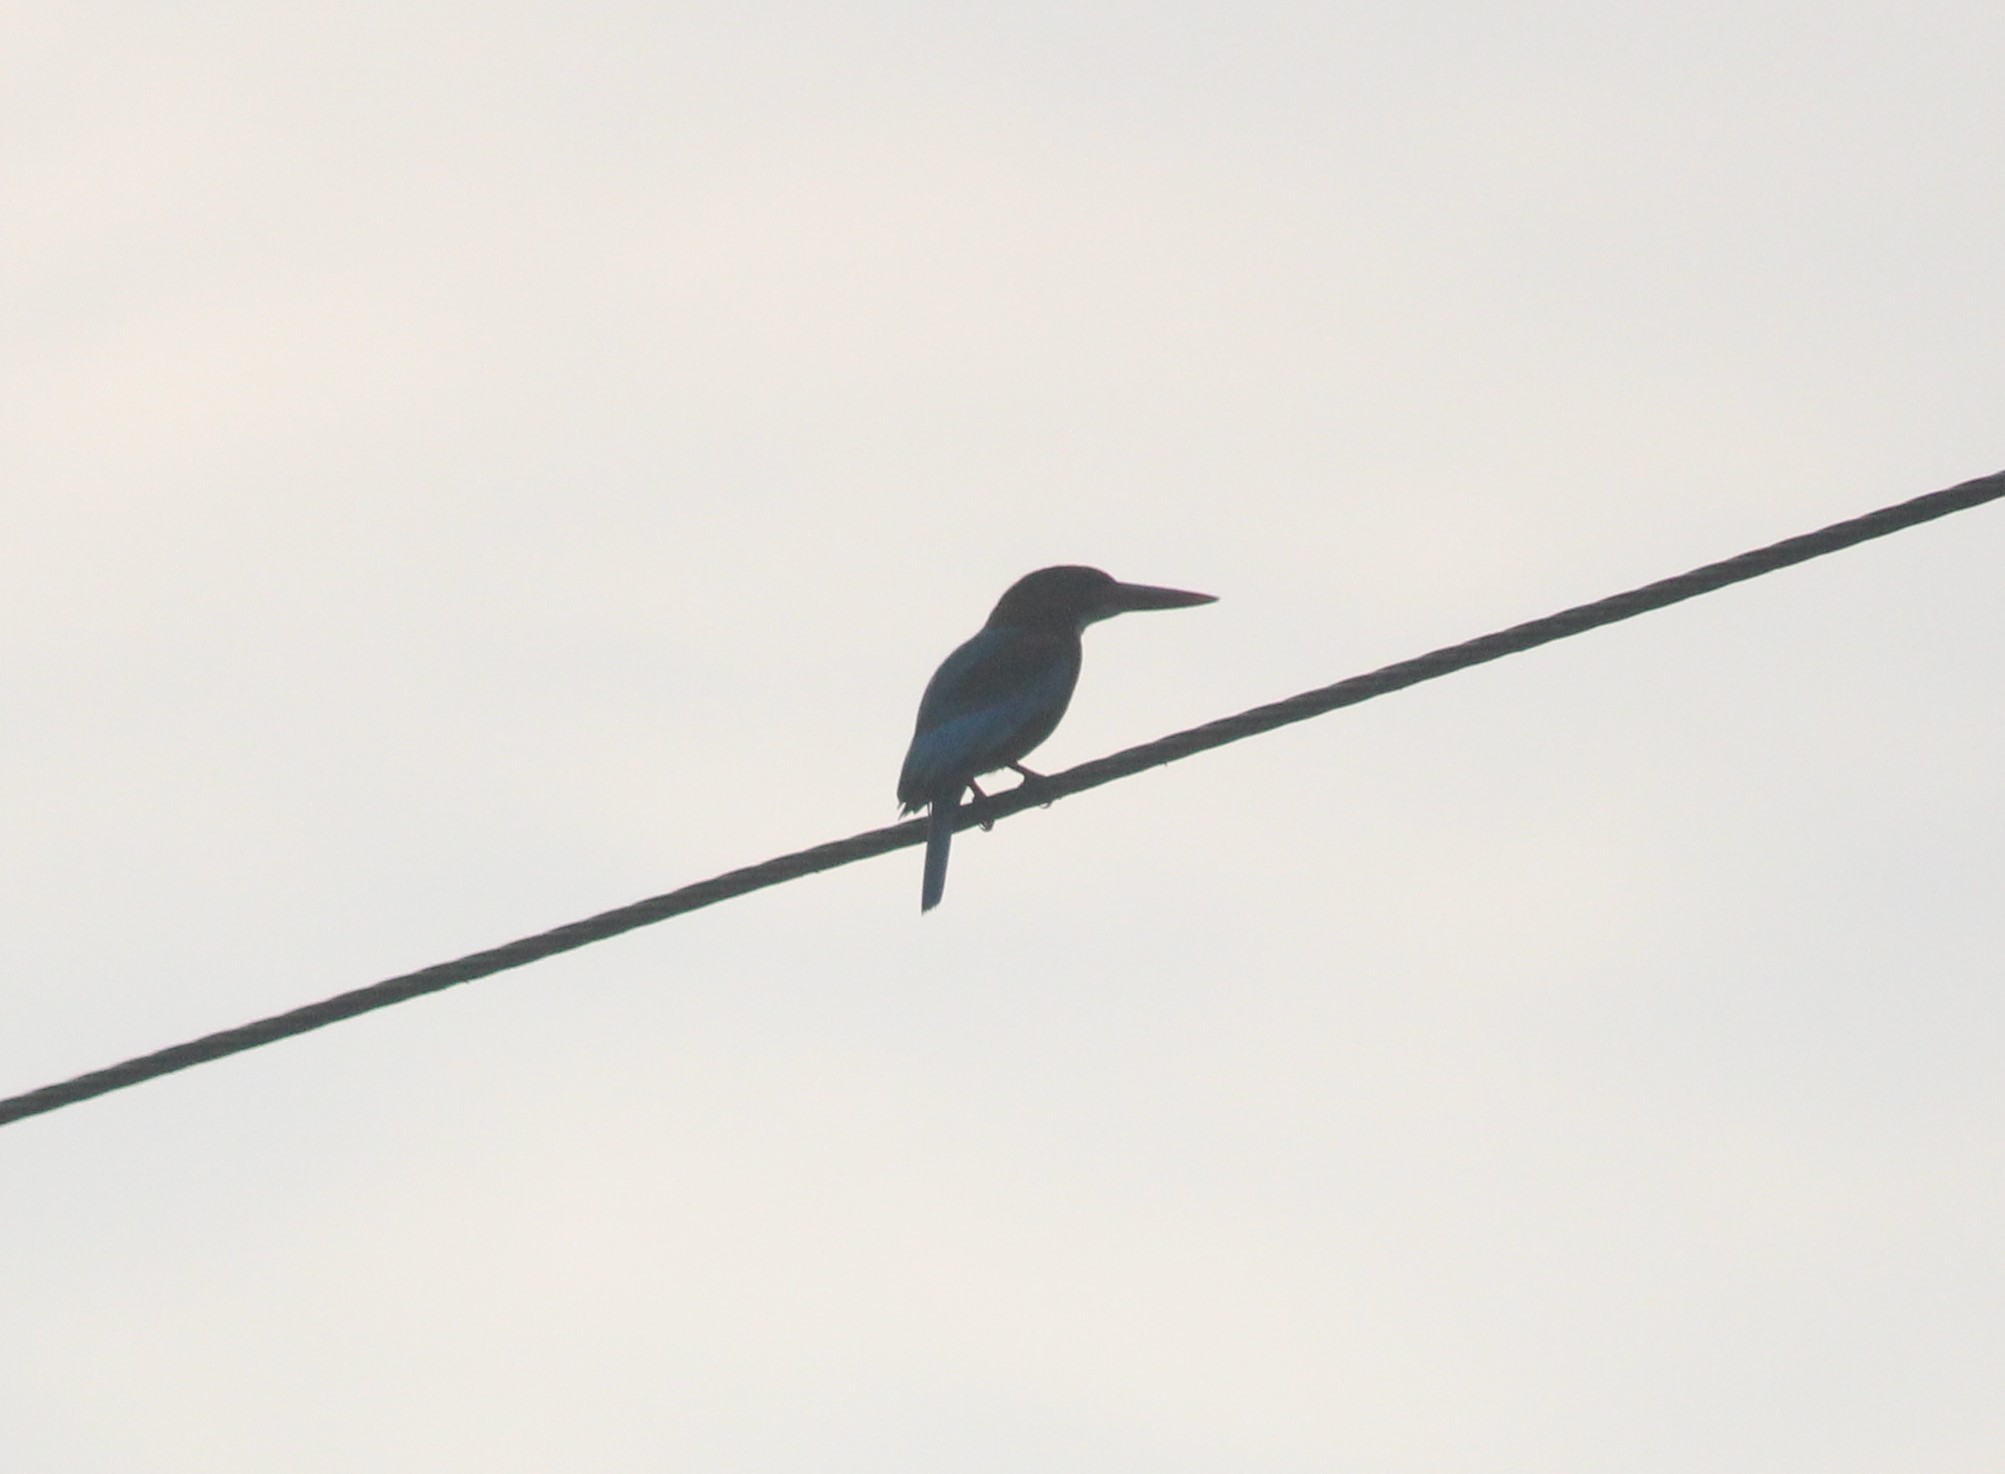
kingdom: Animalia
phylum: Chordata
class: Aves
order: Coraciiformes
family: Alcedinidae
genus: Halcyon
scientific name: Halcyon smyrnensis
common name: White-throated kingfisher
